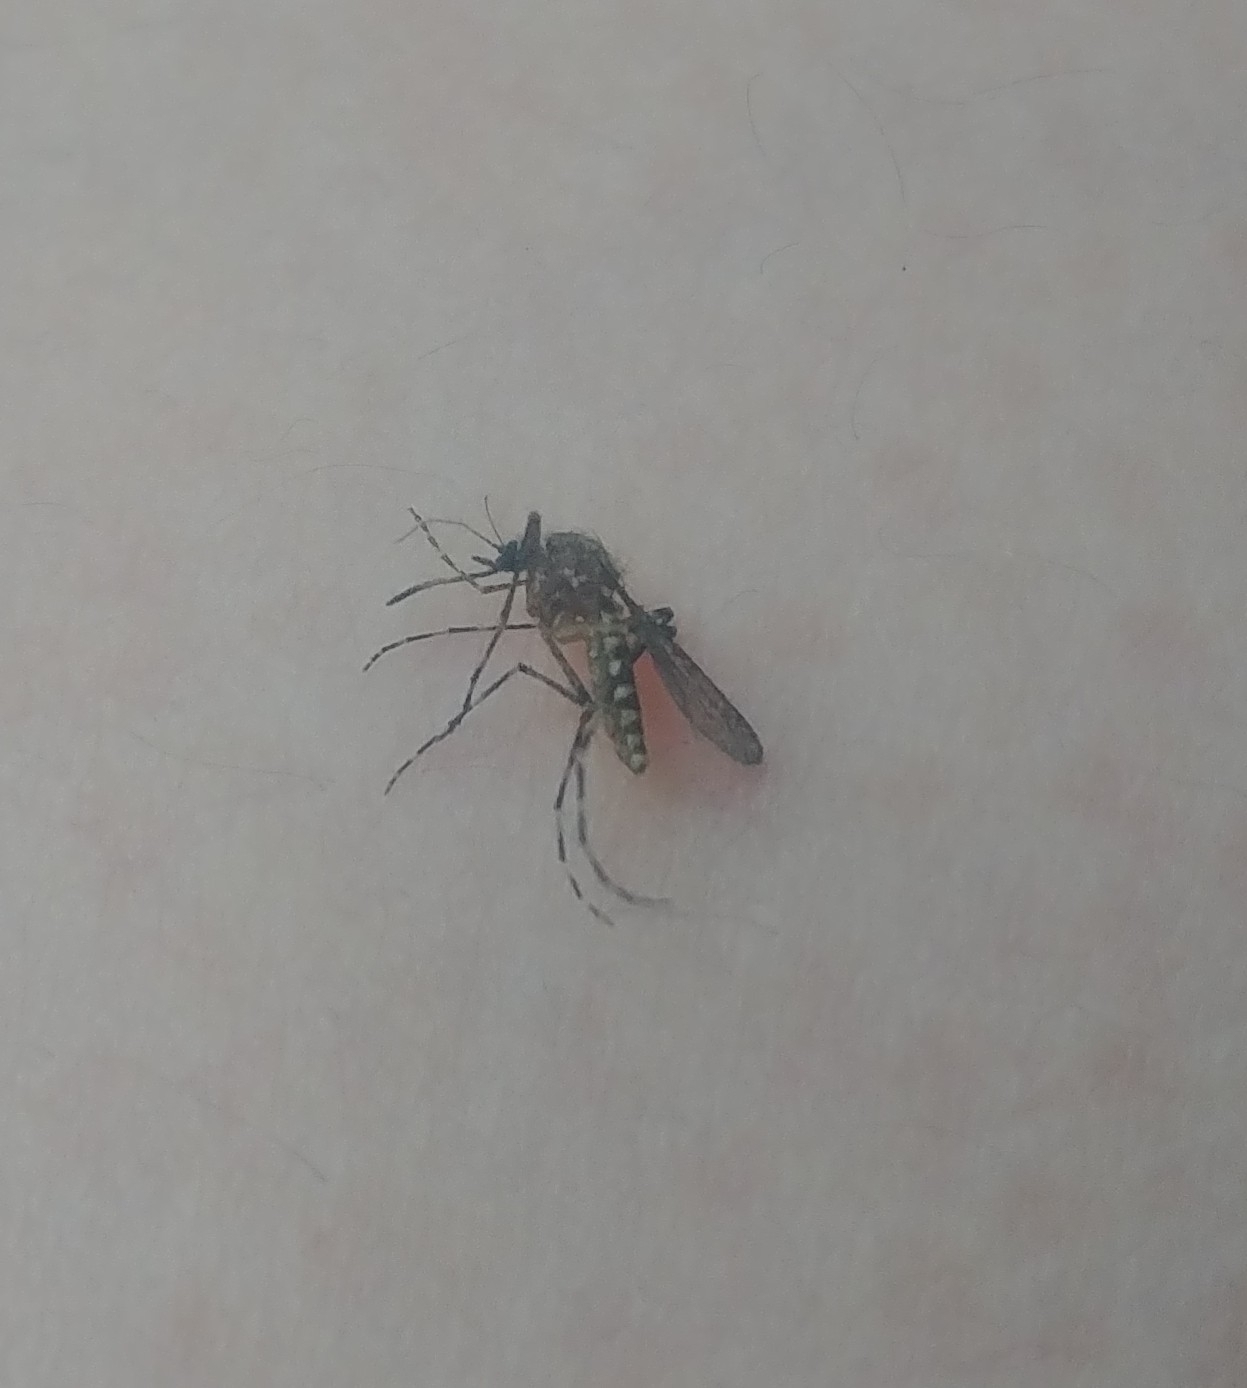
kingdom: Animalia
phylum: Arthropoda
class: Insecta
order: Diptera
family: Culicidae
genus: Coquillettidia
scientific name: Coquillettidia perturbans
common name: Cattail mosquito
